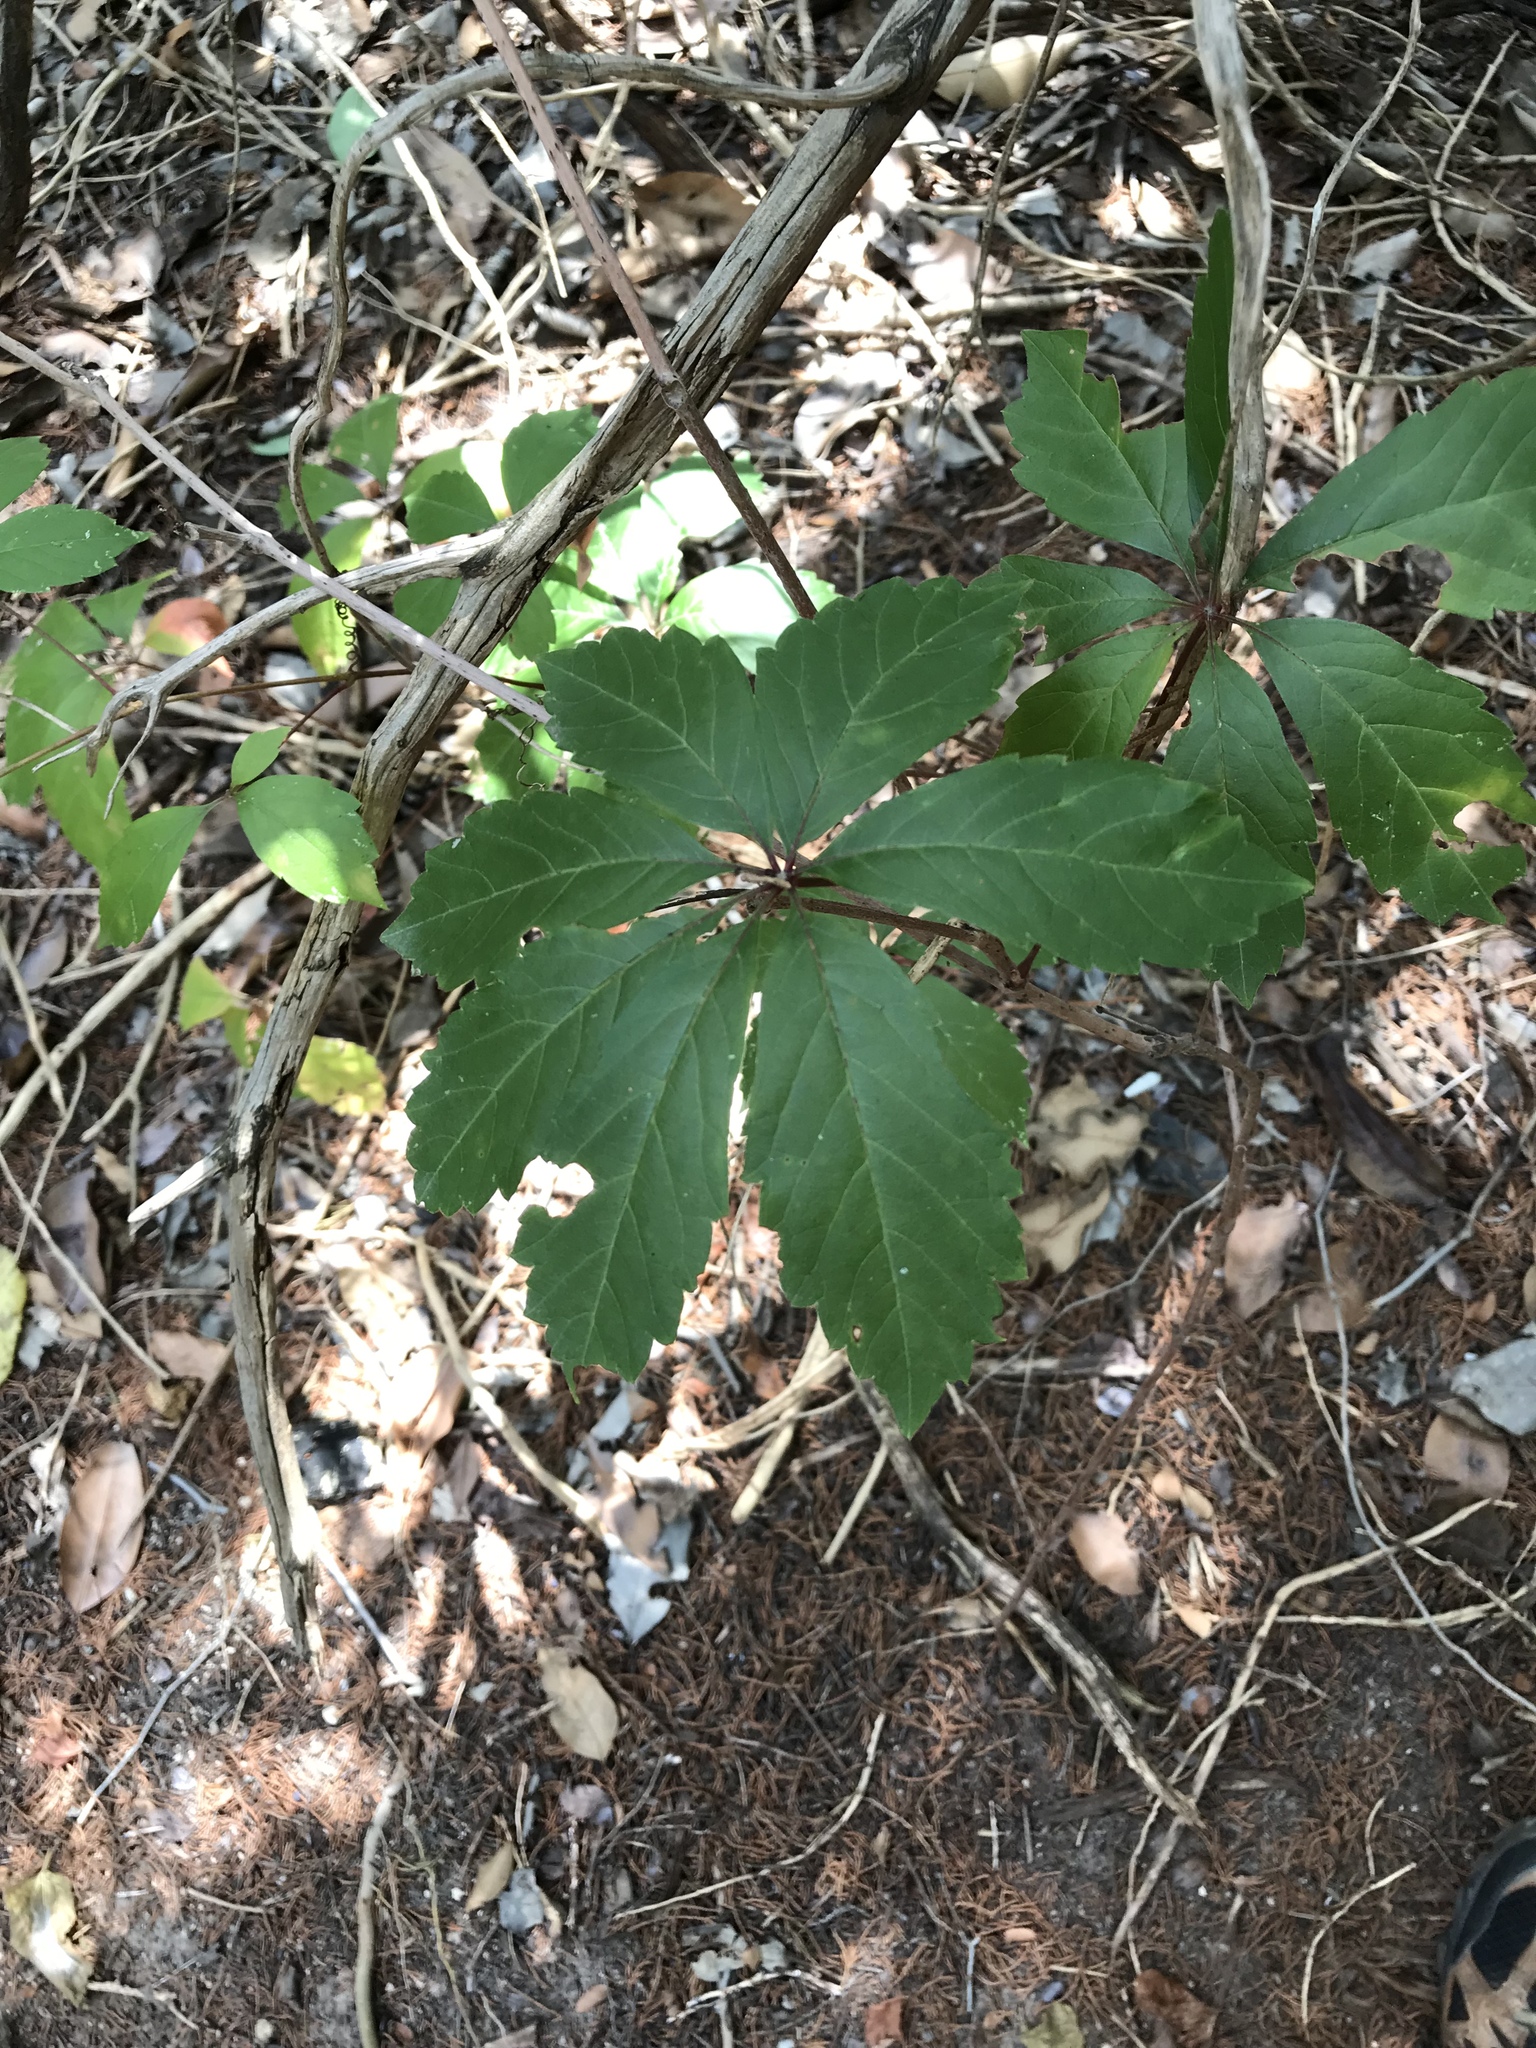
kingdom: Plantae
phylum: Tracheophyta
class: Magnoliopsida
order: Vitales
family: Vitaceae
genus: Parthenocissus
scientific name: Parthenocissus heptaphylla
